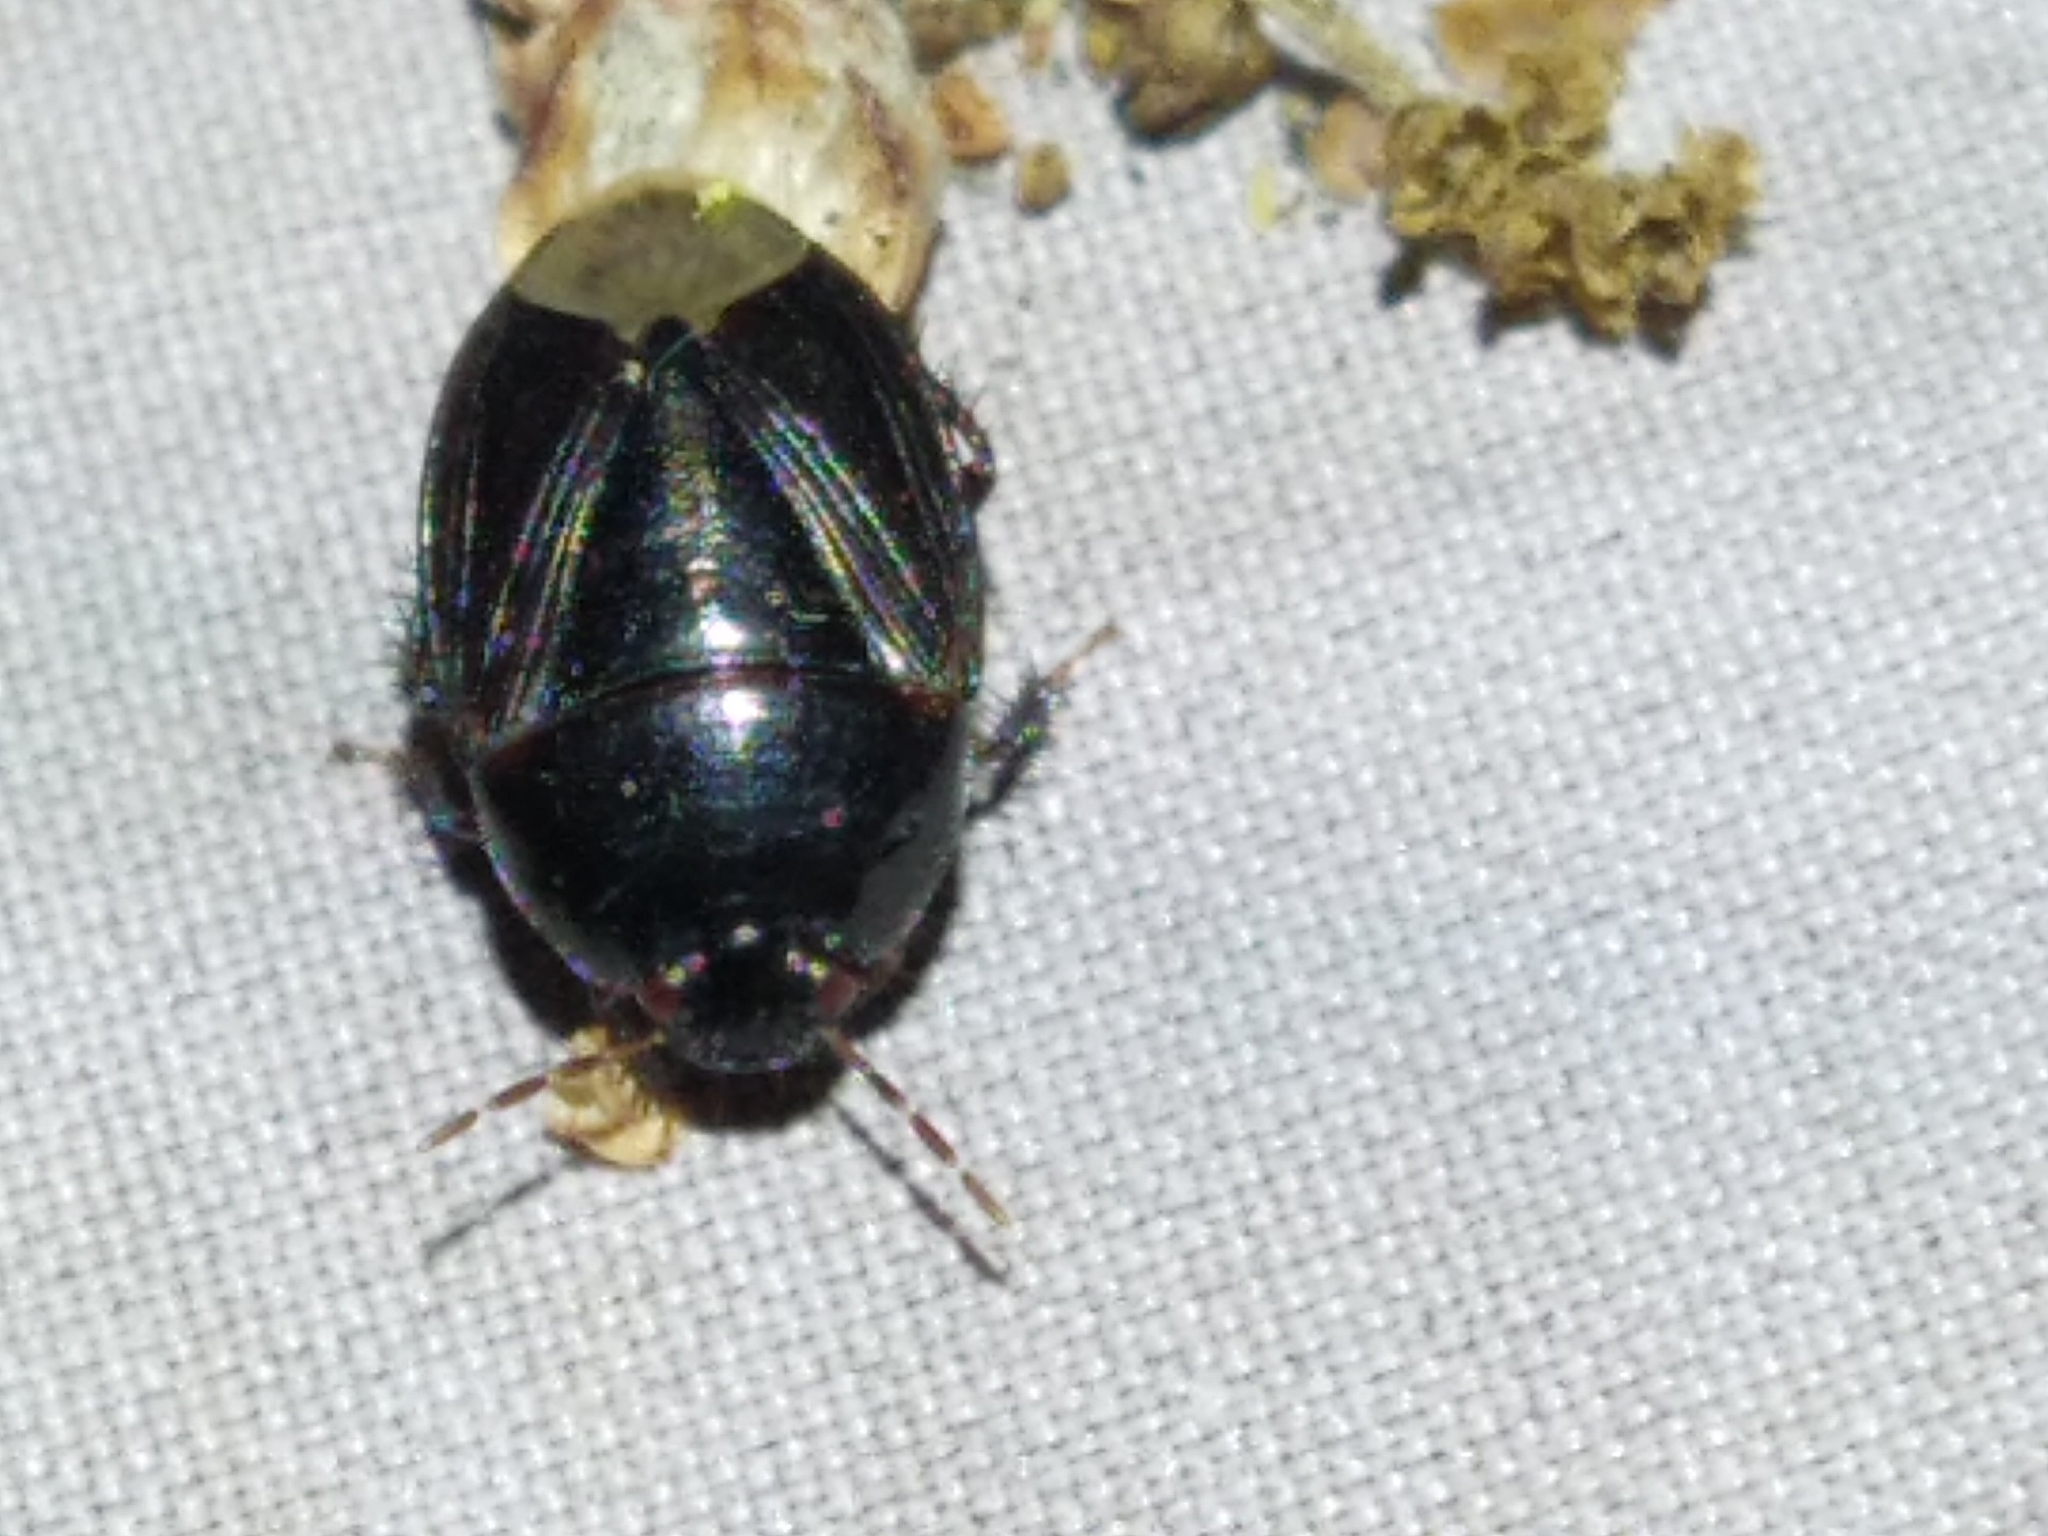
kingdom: Animalia
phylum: Arthropoda
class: Insecta
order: Hemiptera
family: Cydnidae
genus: Macroscytus
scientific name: Macroscytus brunneus
